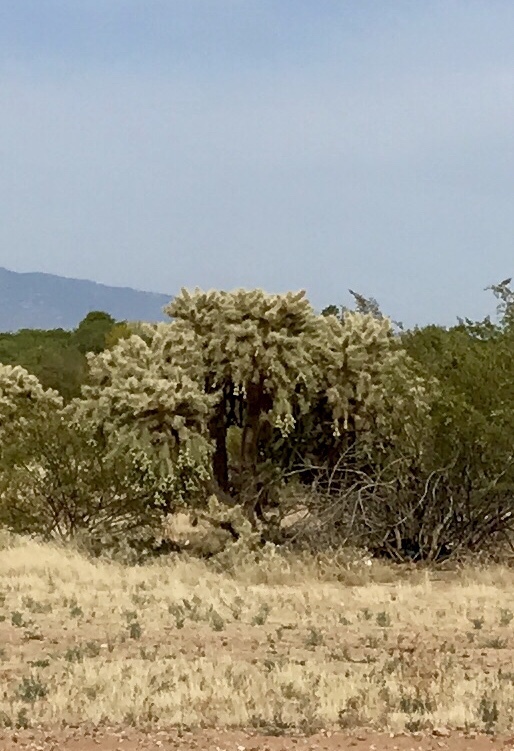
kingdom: Plantae
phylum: Tracheophyta
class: Magnoliopsida
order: Caryophyllales
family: Cactaceae
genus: Cylindropuntia
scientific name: Cylindropuntia fulgida
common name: Jumping cholla
